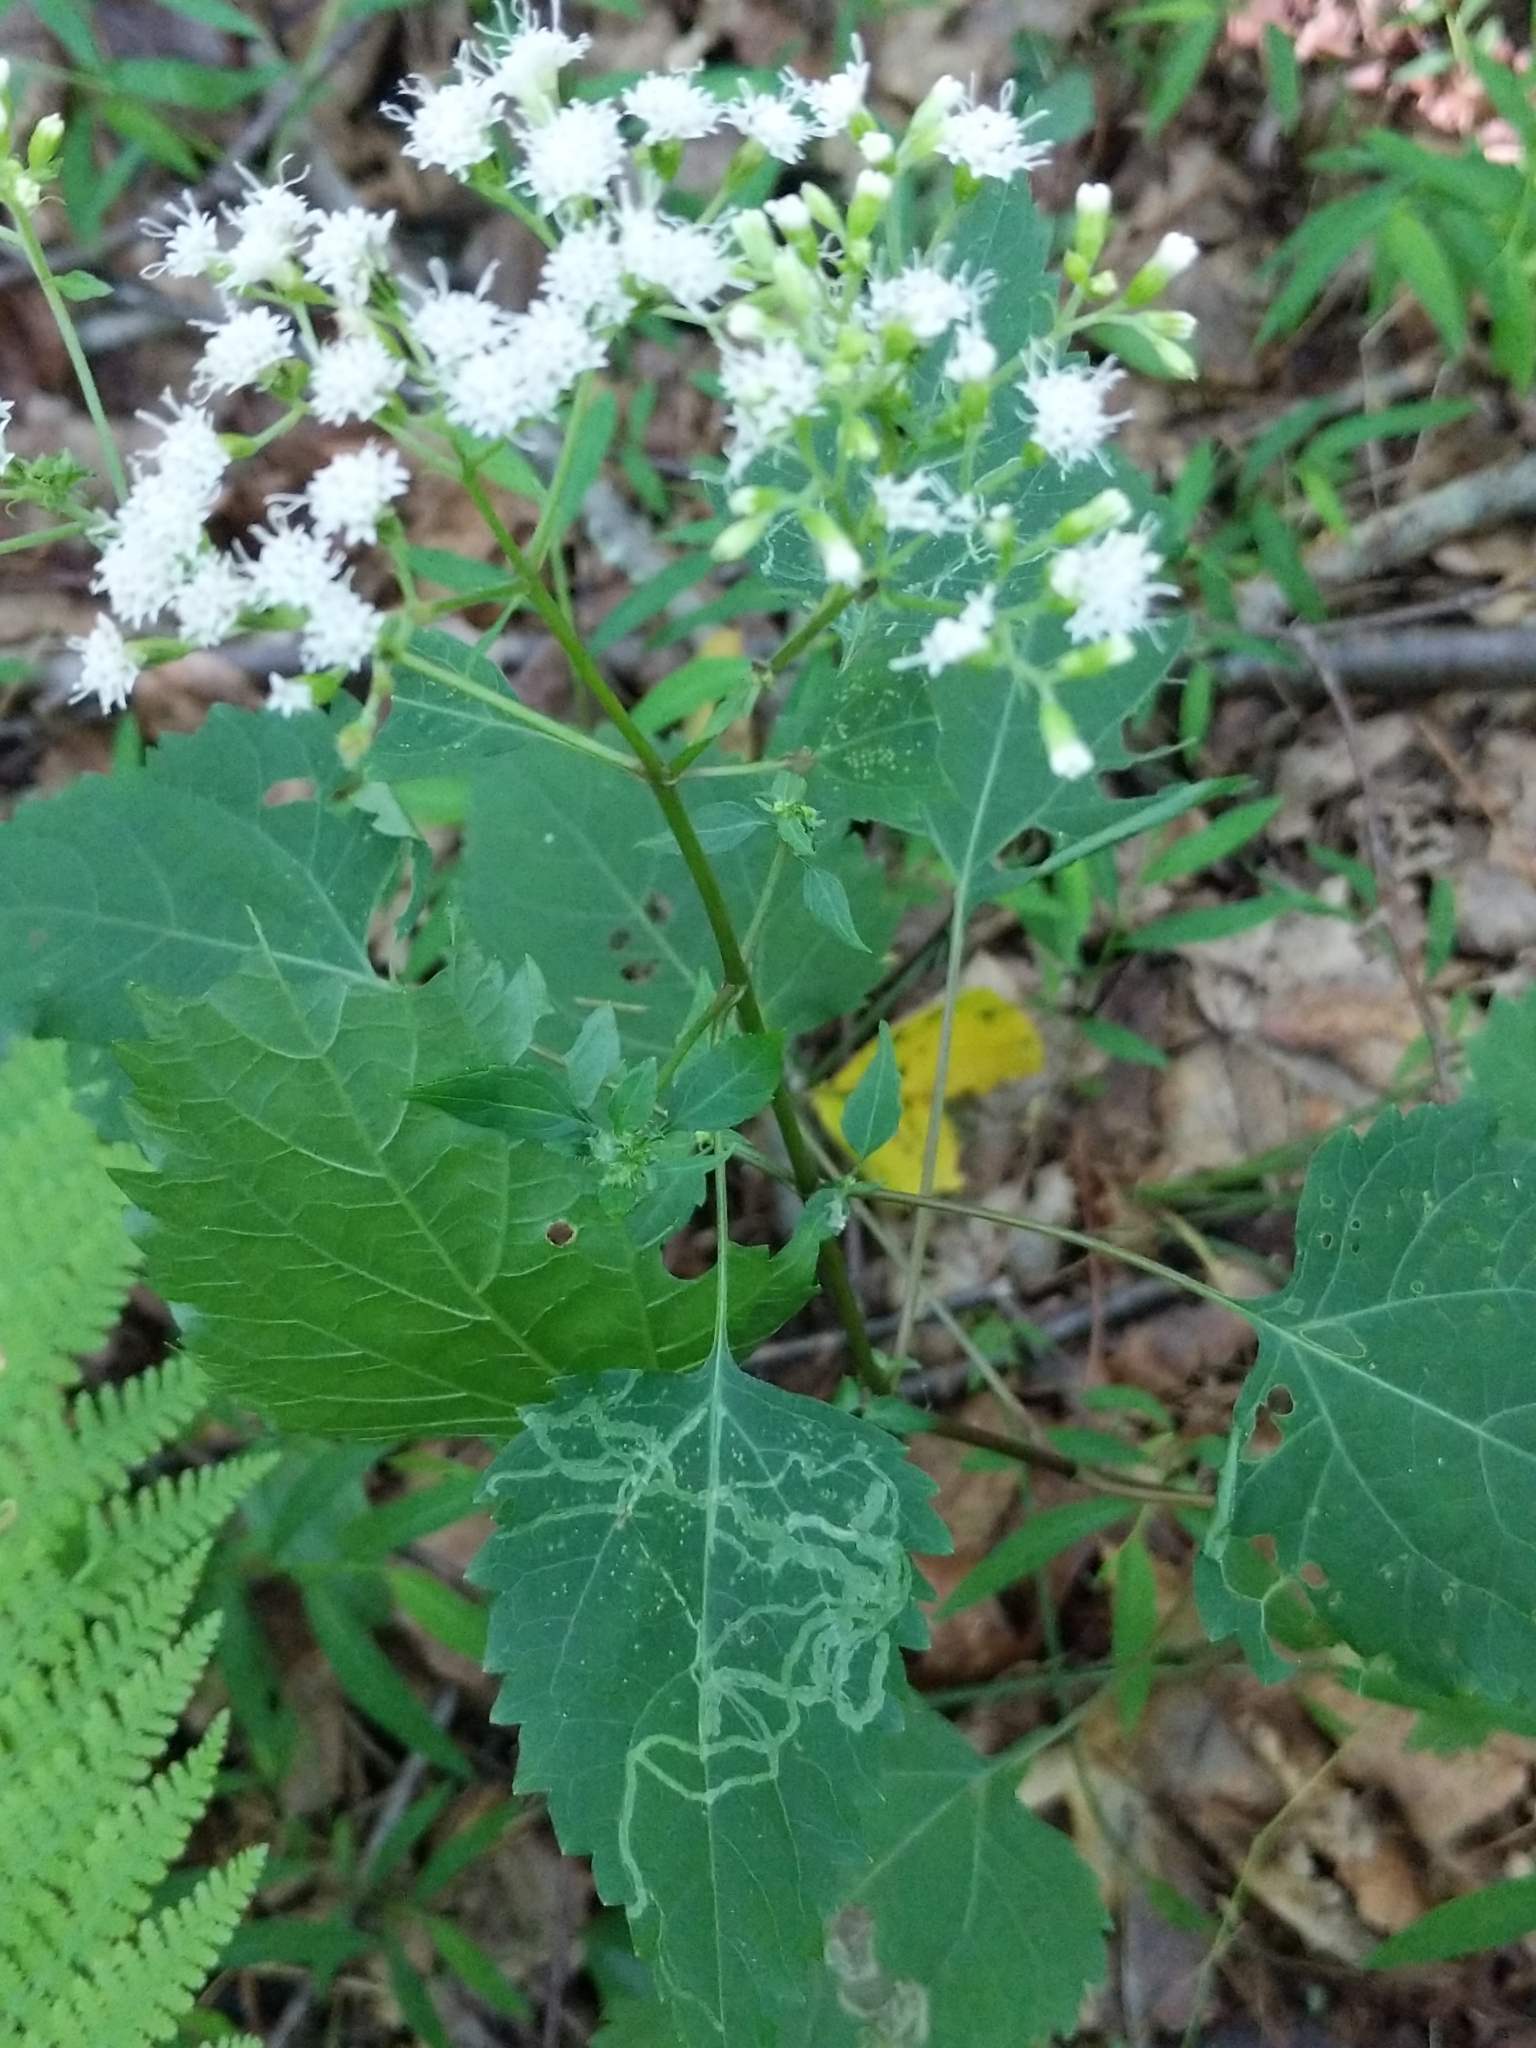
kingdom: Plantae
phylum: Tracheophyta
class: Magnoliopsida
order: Asterales
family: Asteraceae
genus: Ageratina
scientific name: Ageratina altissima
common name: White snakeroot
